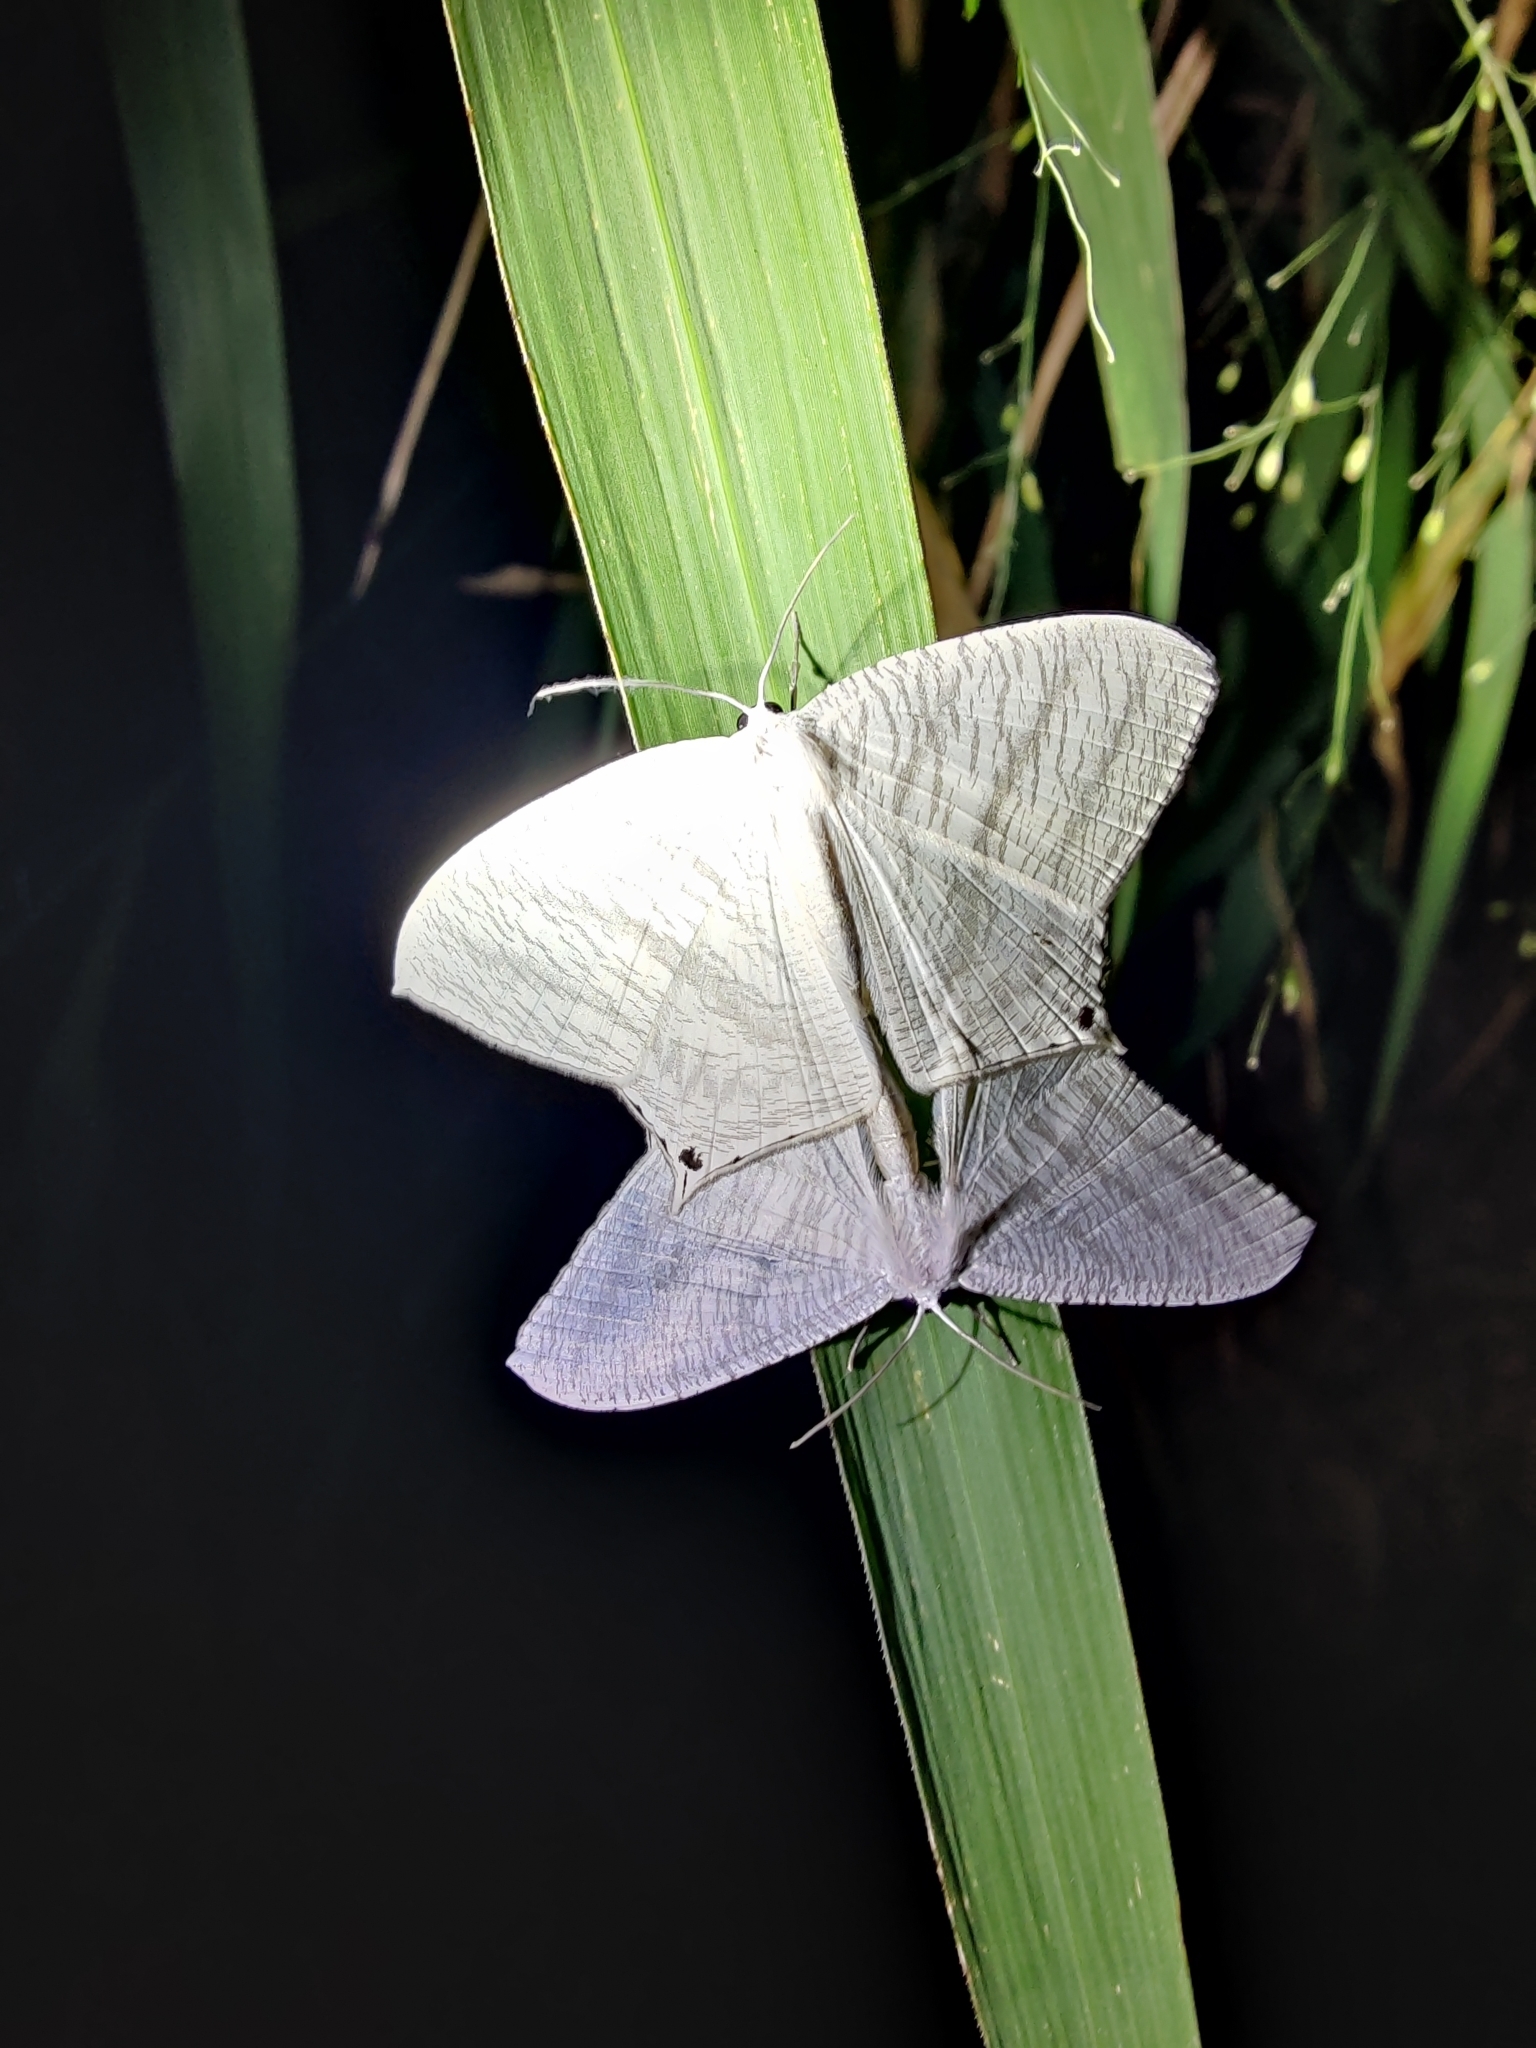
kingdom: Animalia
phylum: Arthropoda
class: Insecta
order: Lepidoptera
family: Uraniidae
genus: Micronia
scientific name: Micronia aculeata
